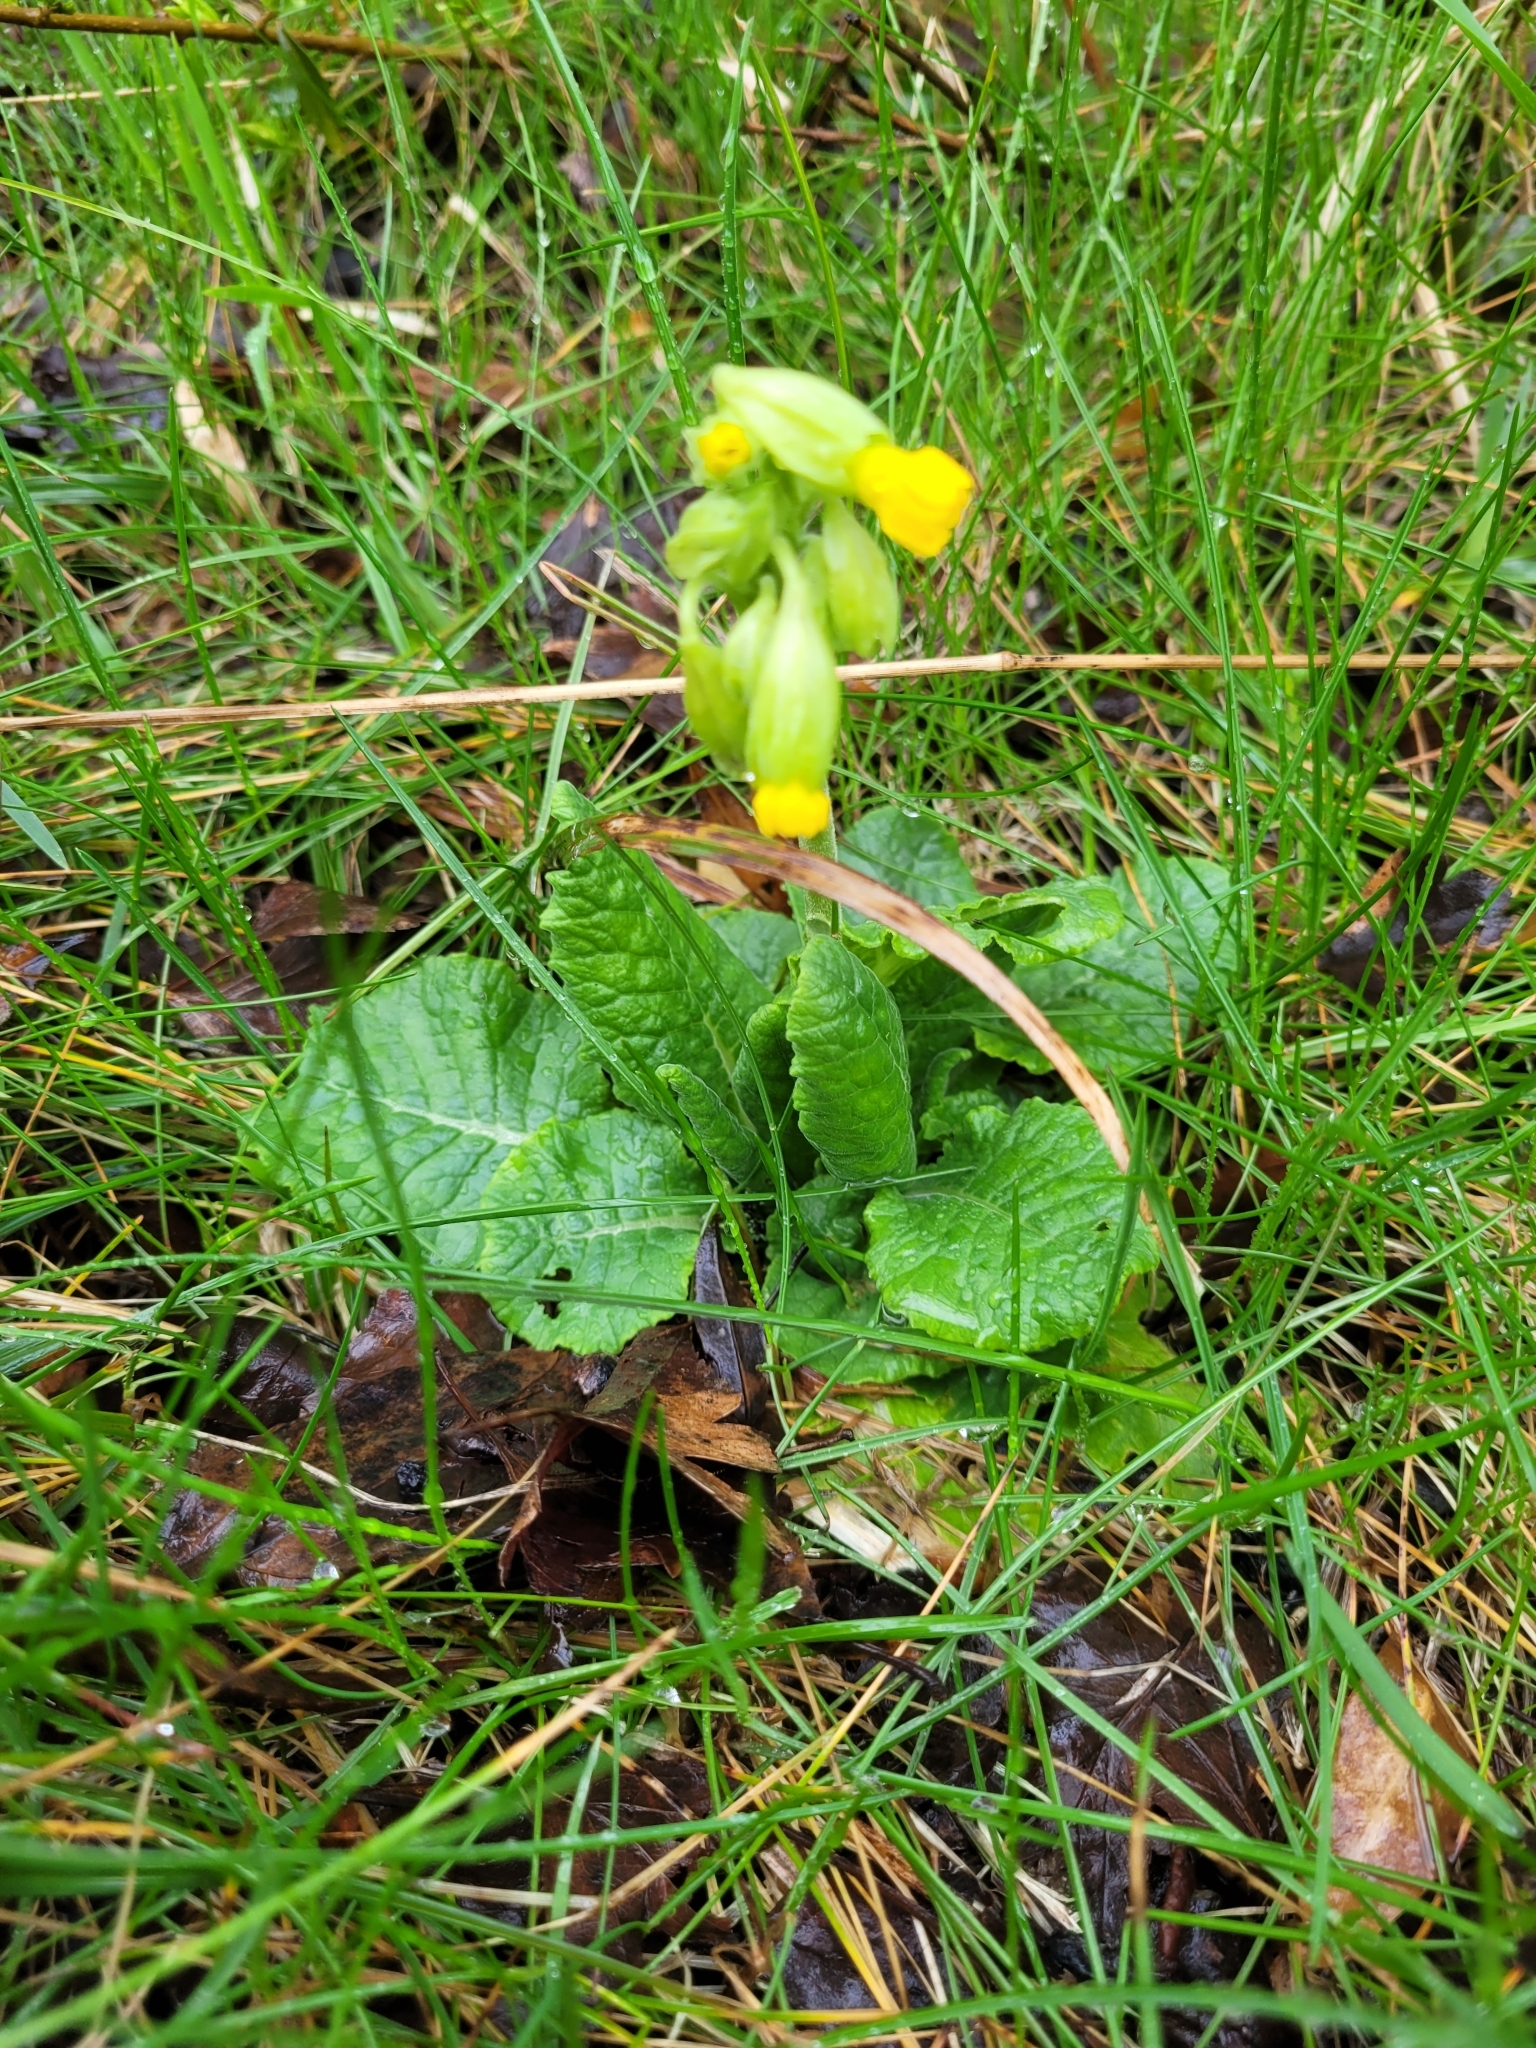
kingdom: Plantae
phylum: Tracheophyta
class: Magnoliopsida
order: Ericales
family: Primulaceae
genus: Primula
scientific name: Primula veris
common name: Cowslip
